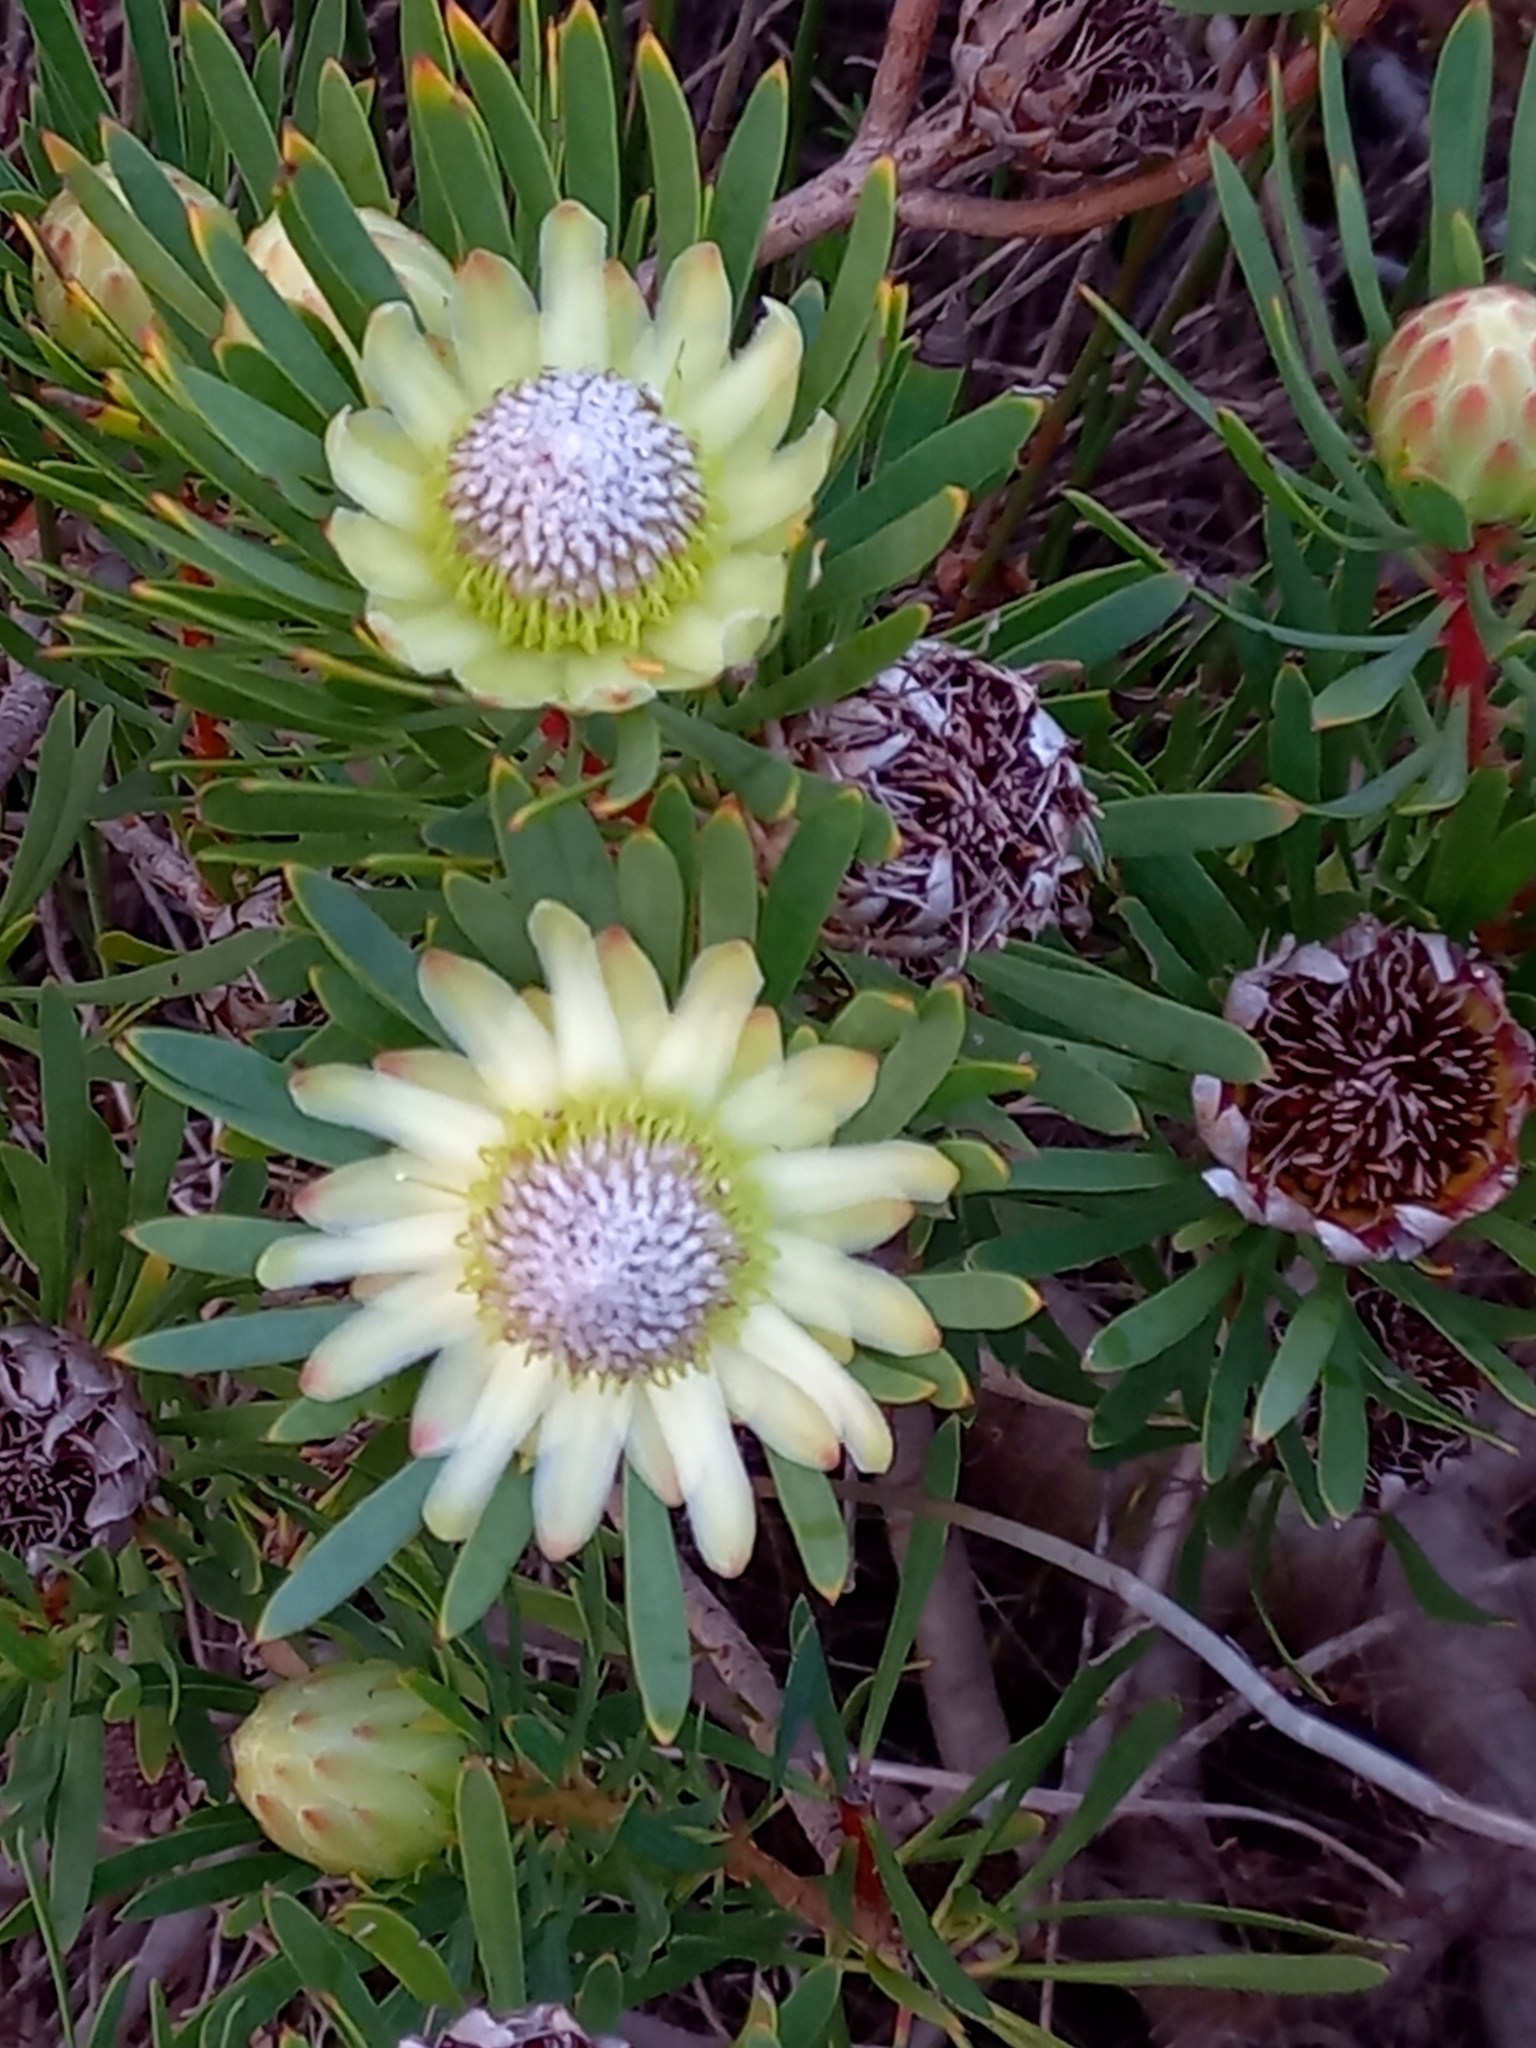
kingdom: Plantae
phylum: Tracheophyta
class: Magnoliopsida
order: Proteales
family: Proteaceae
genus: Protea
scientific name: Protea scolymocephala
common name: Thistle sugarbush
